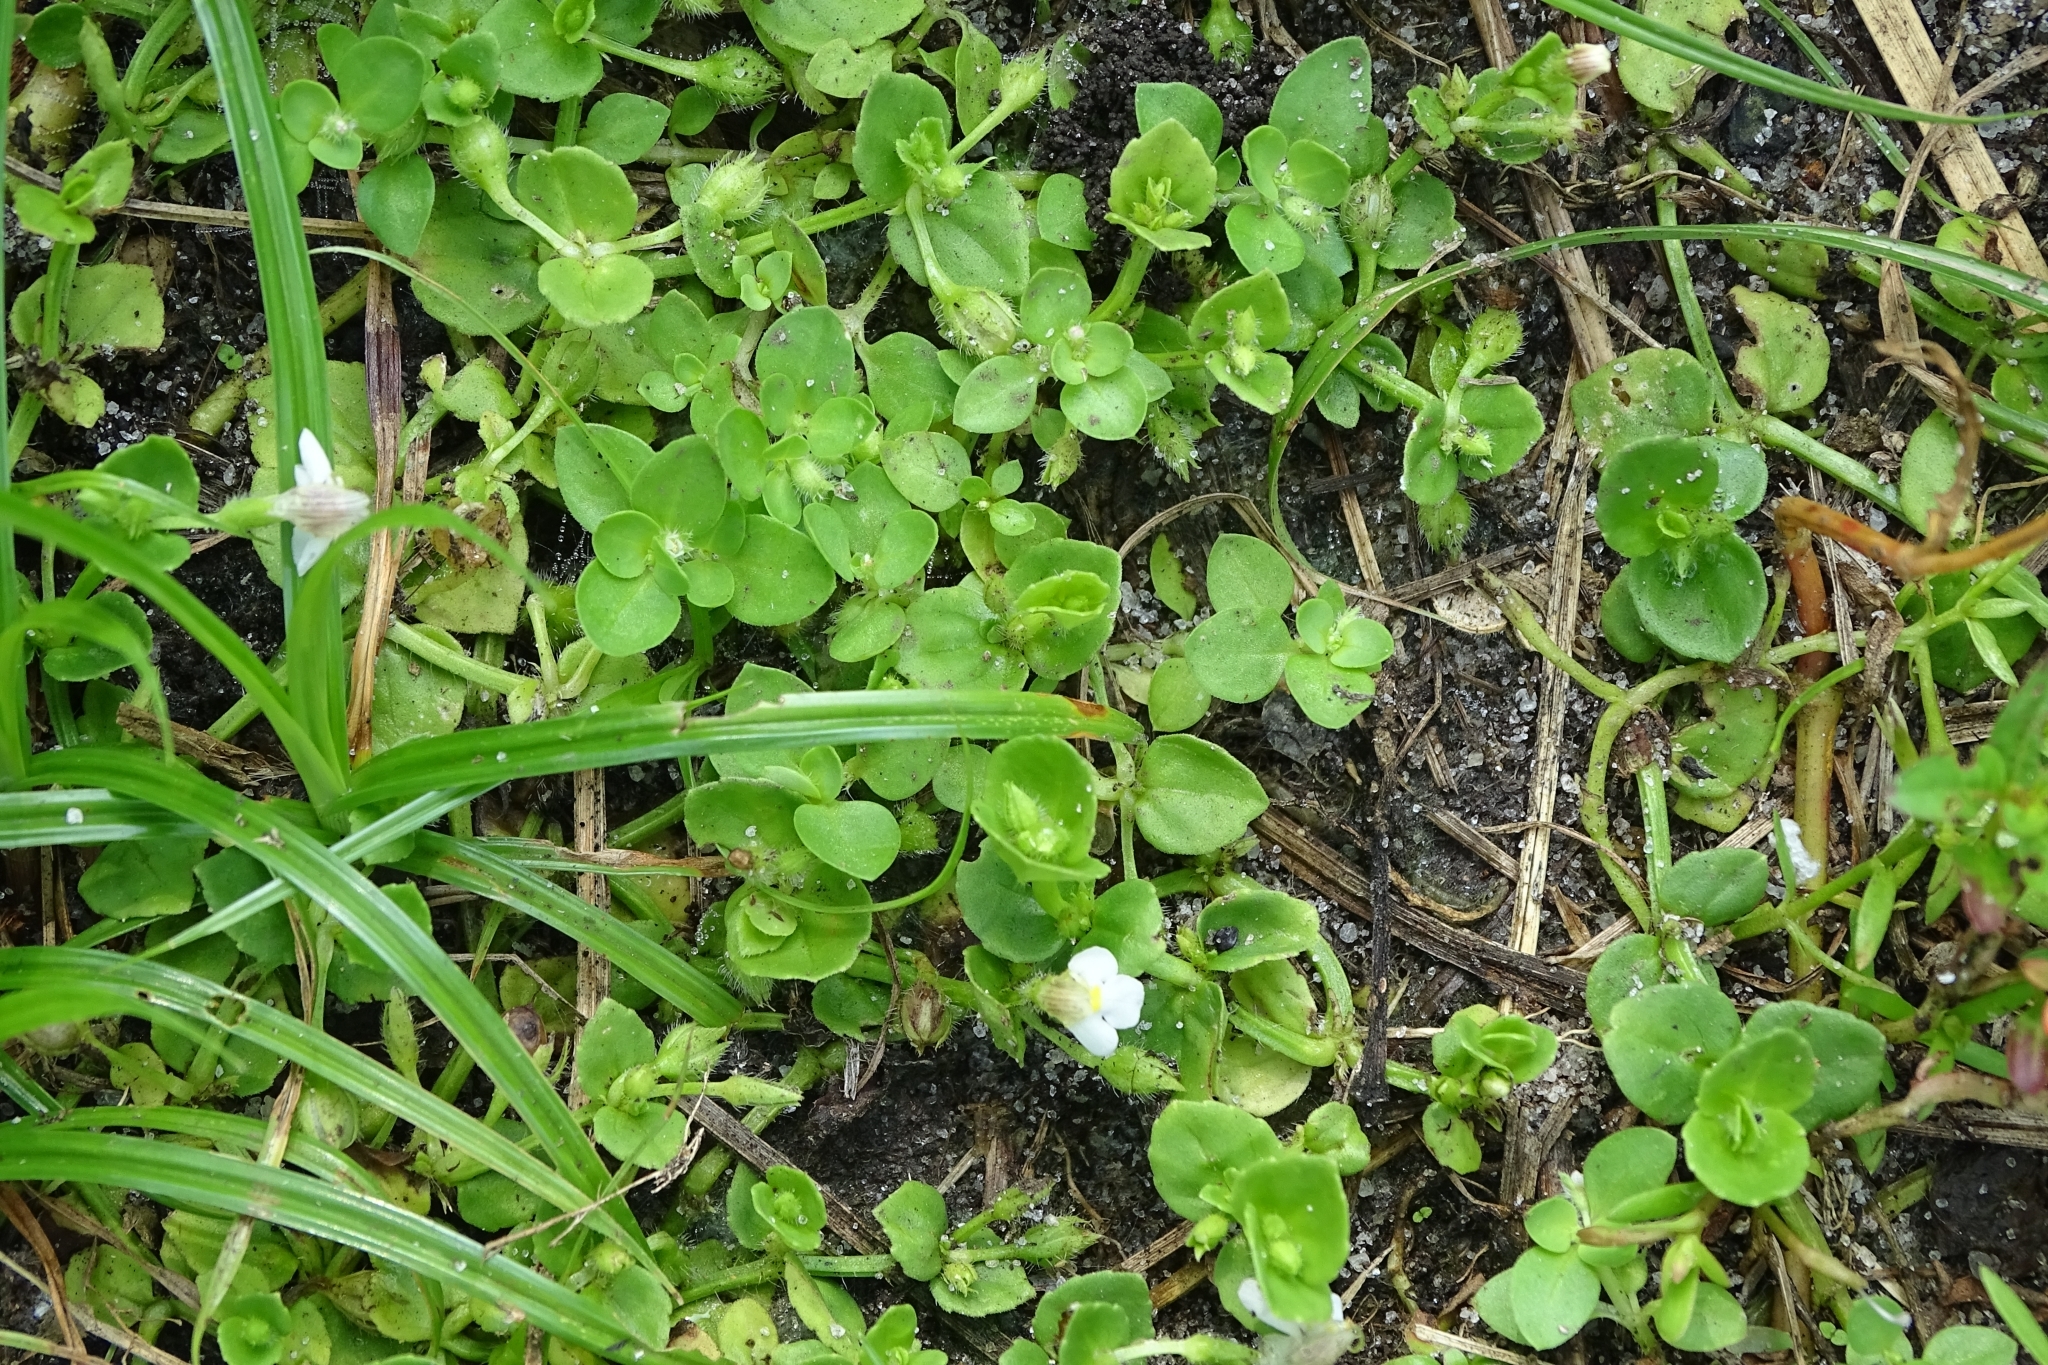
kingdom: Plantae
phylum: Tracheophyta
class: Magnoliopsida
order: Lamiales
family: Linderniaceae
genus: Yamazakia
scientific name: Yamazakia pusilla
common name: Tiny slitwort
